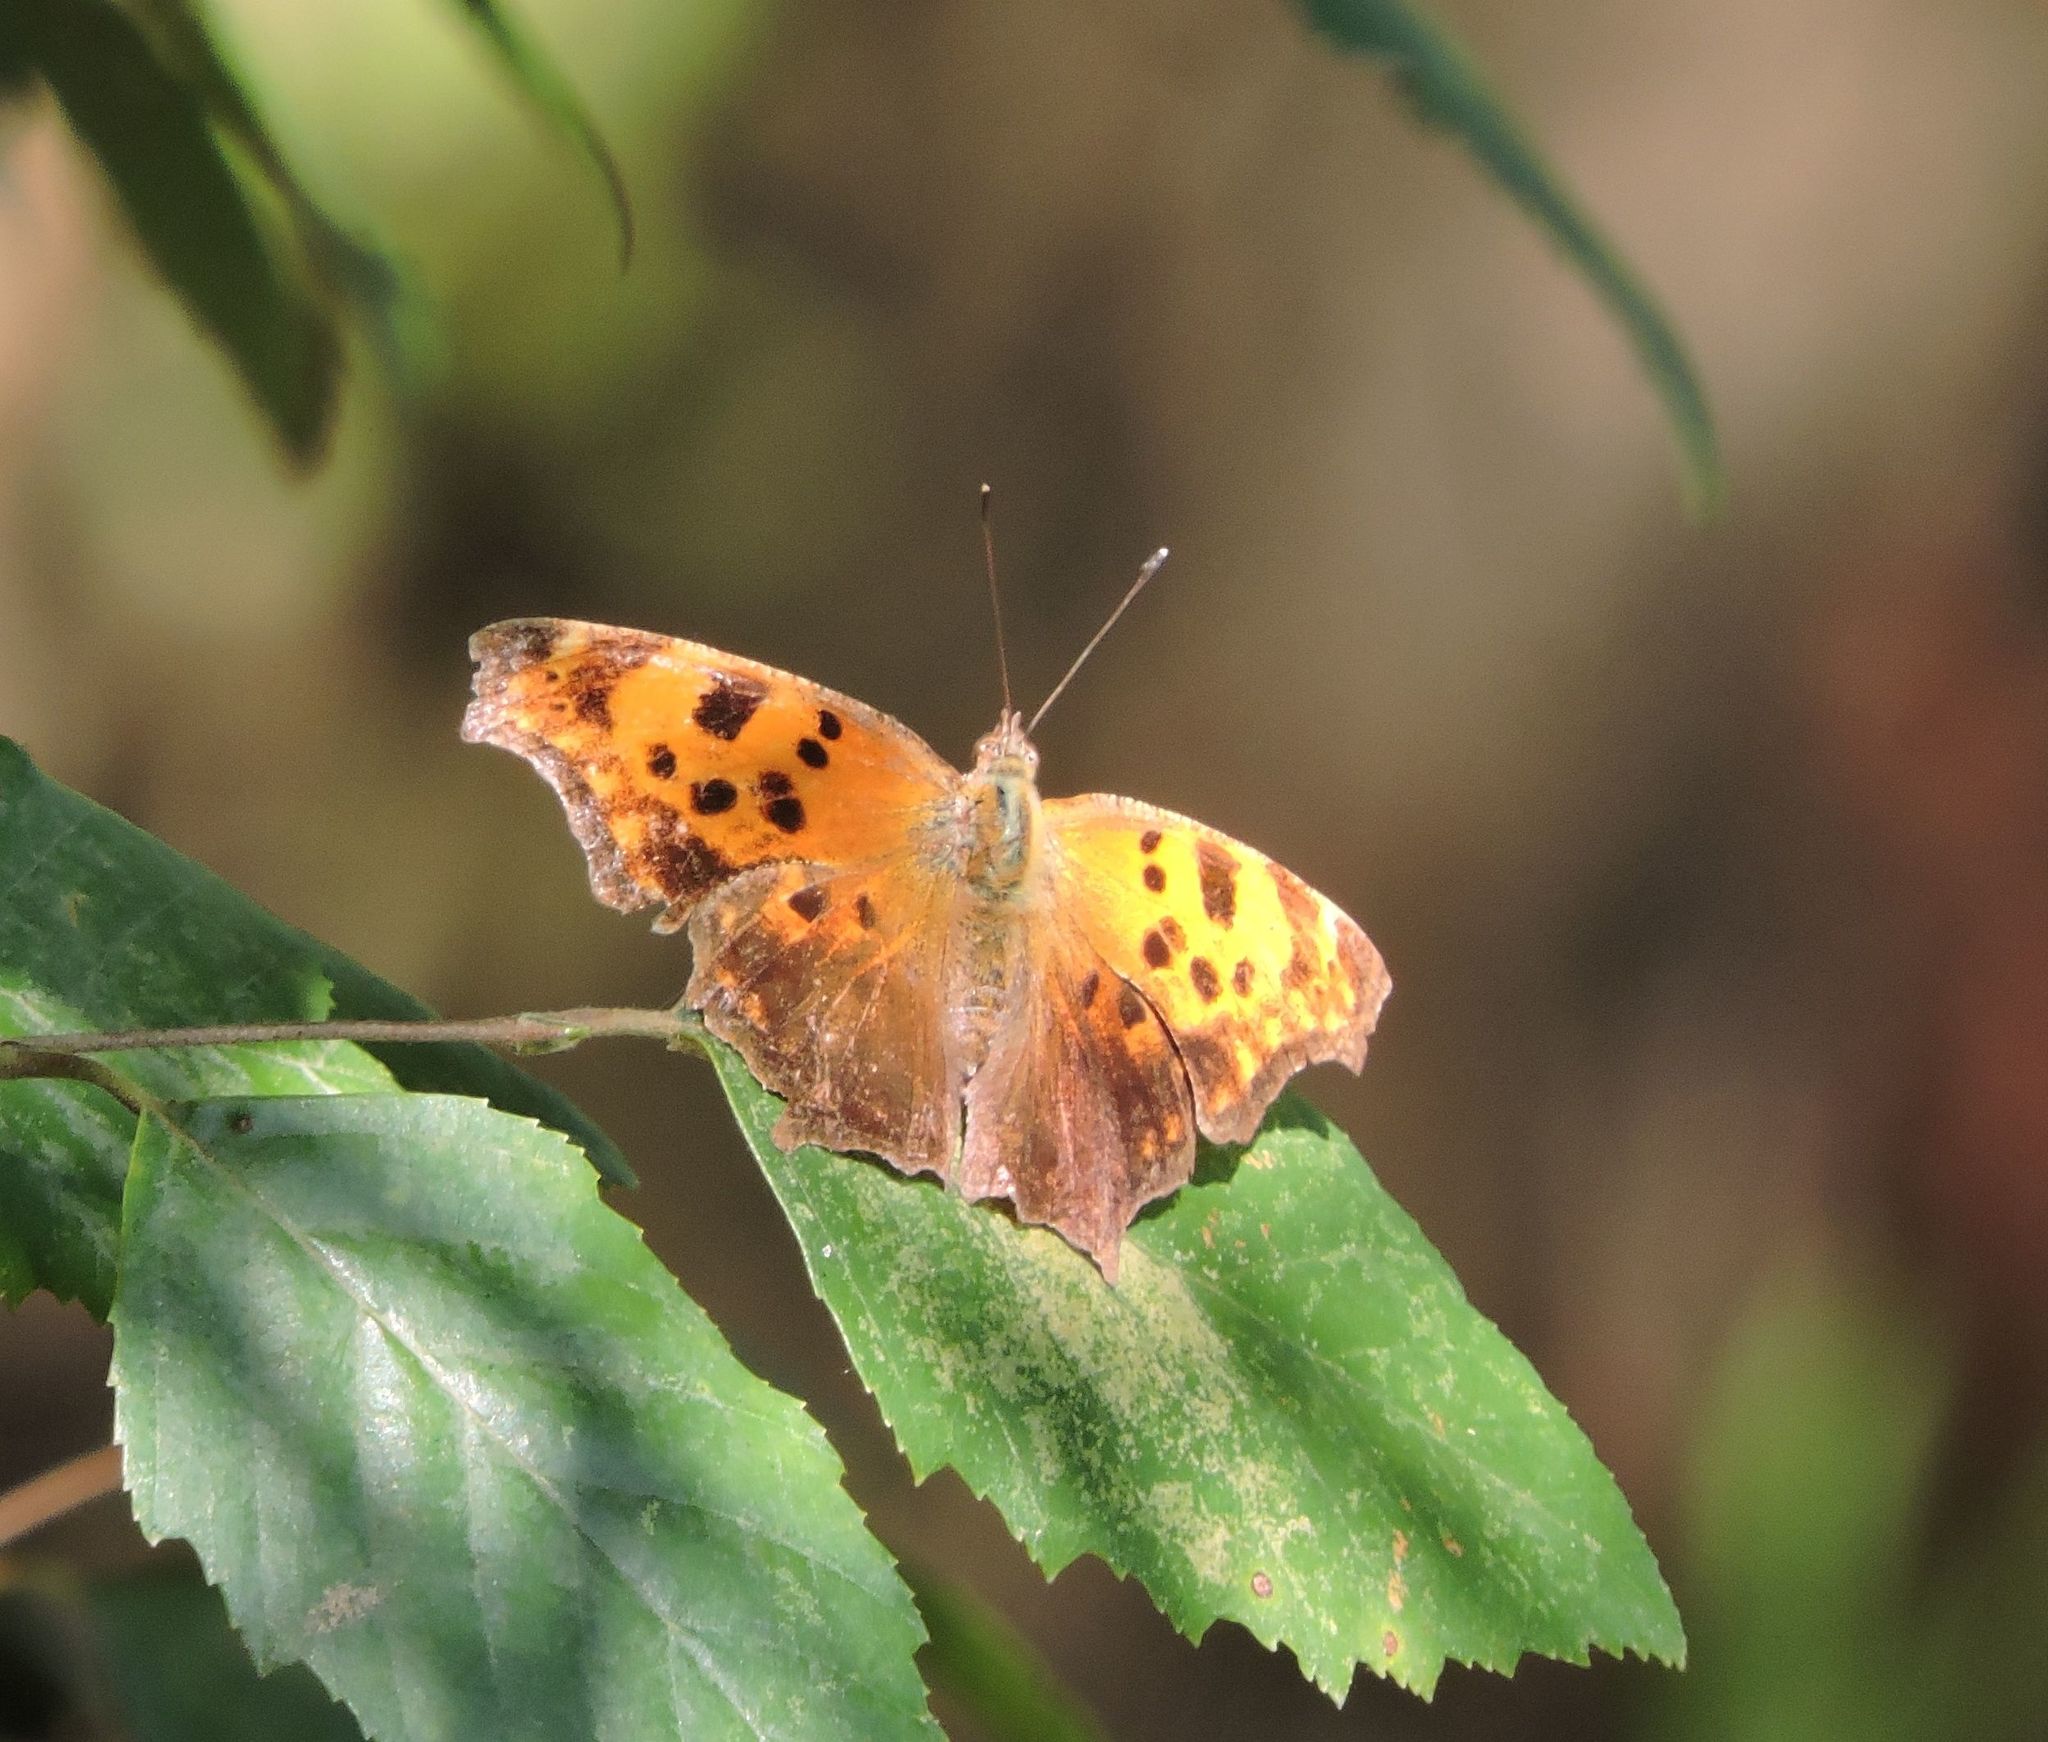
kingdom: Animalia
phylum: Arthropoda
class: Insecta
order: Lepidoptera
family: Nymphalidae
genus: Polygonia
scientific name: Polygonia comma
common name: Eastern comma
